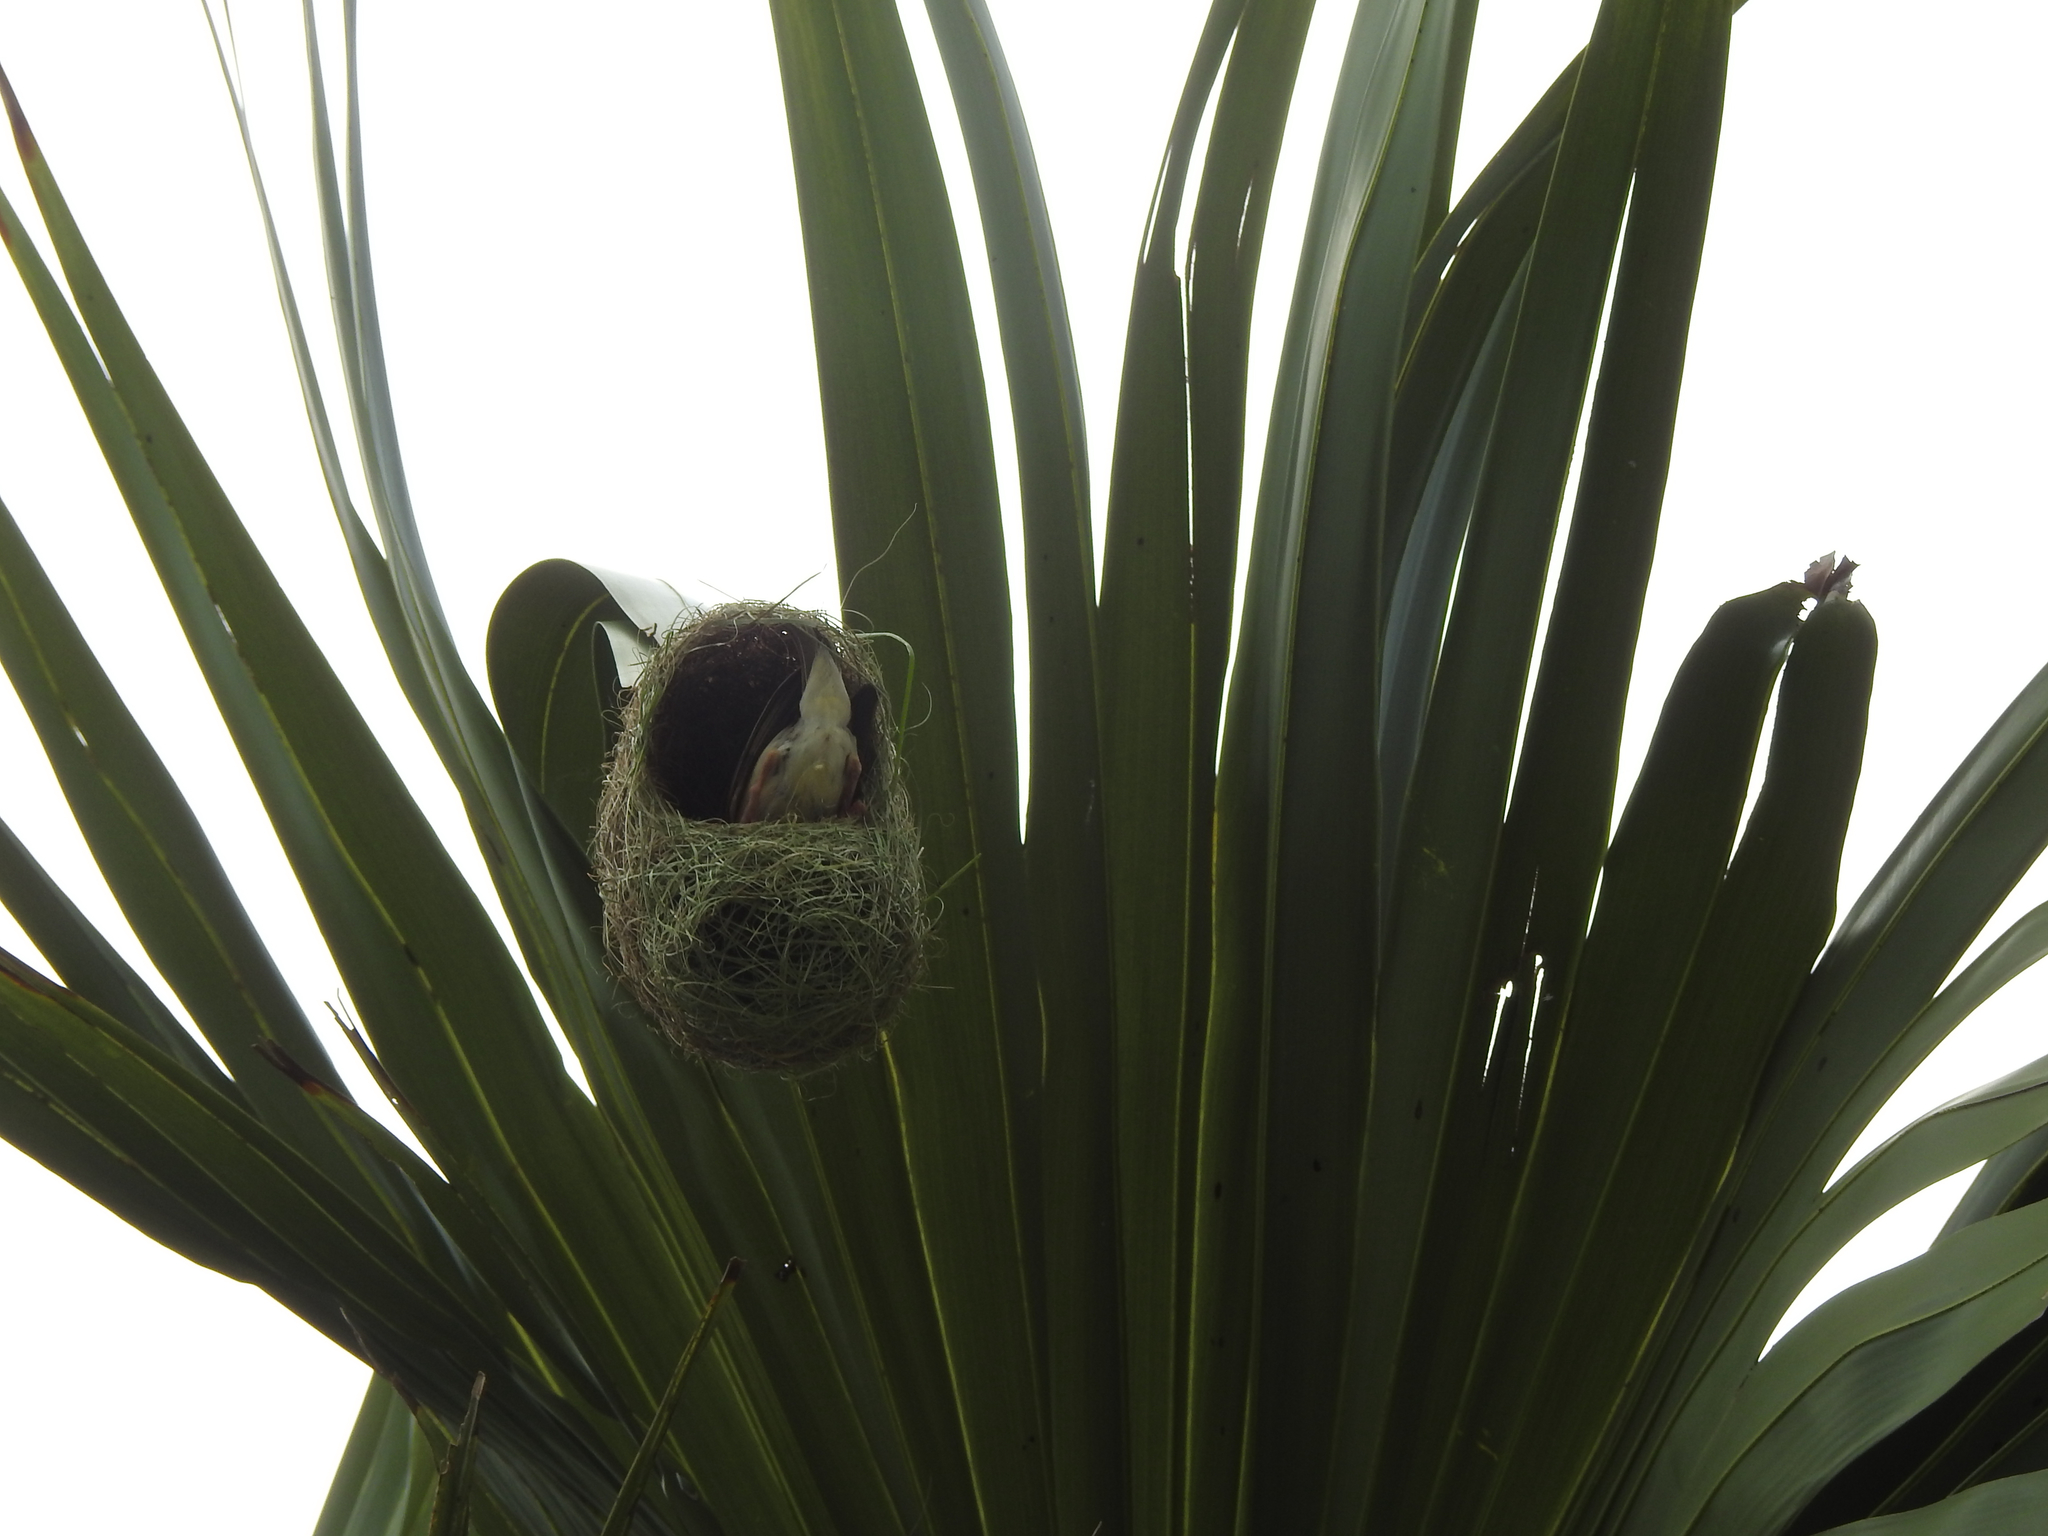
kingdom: Animalia
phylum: Chordata
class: Aves
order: Passeriformes
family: Ploceidae
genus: Ploceus
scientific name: Ploceus philippinus
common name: Baya weaver
